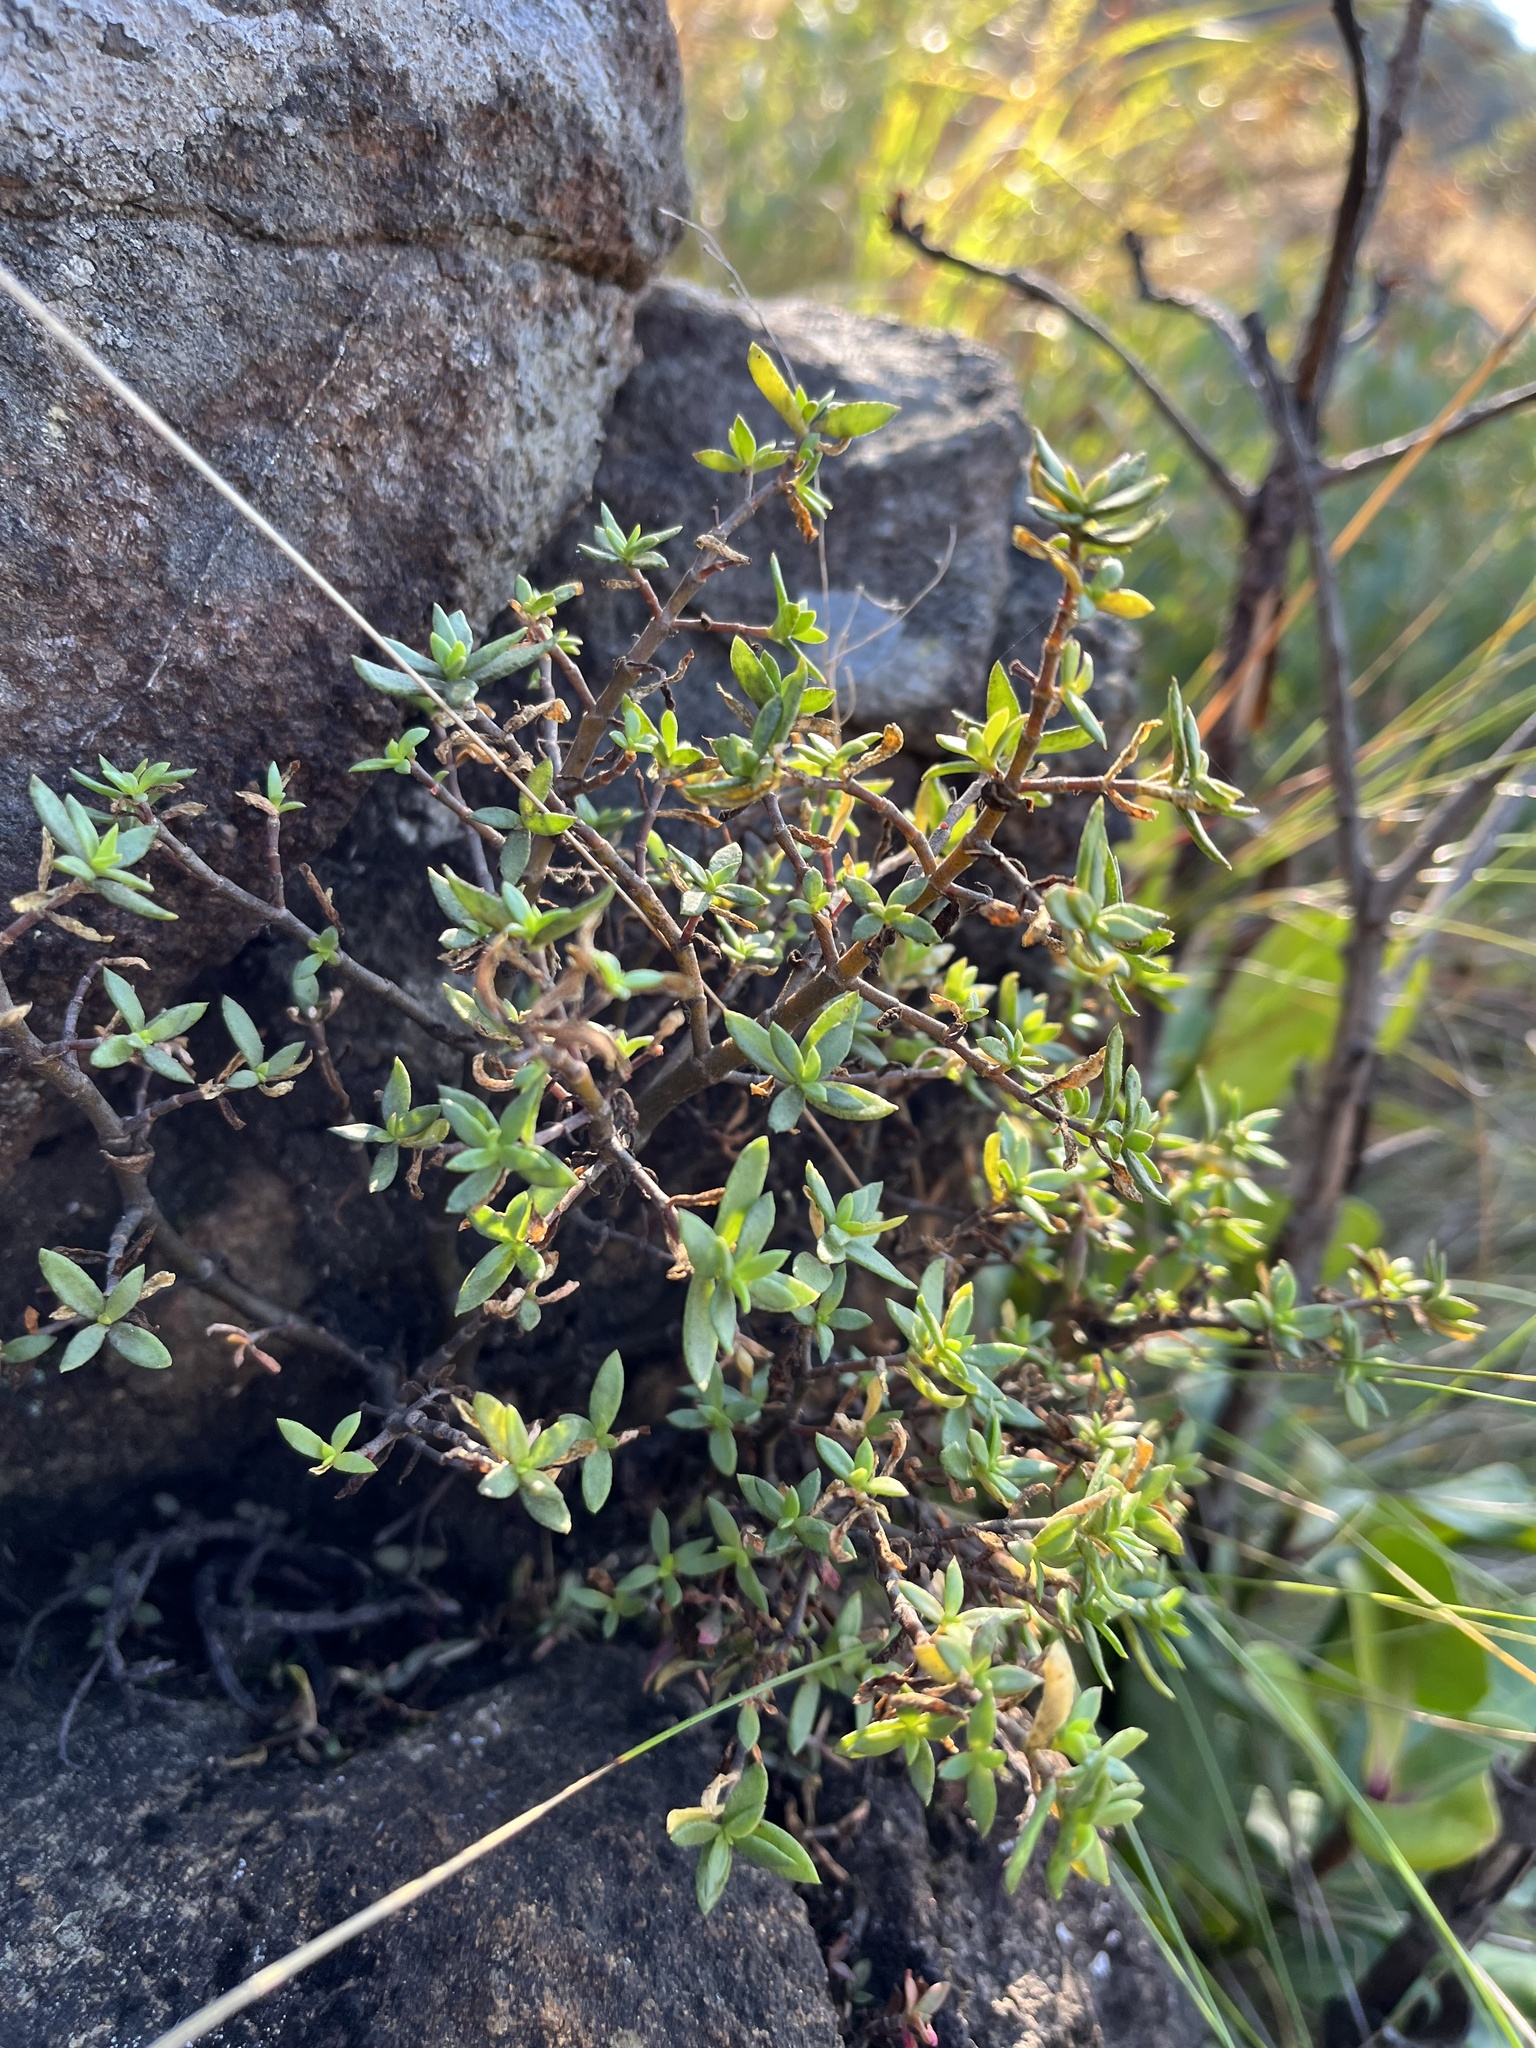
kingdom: Plantae
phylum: Tracheophyta
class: Magnoliopsida
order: Saxifragales
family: Crassulaceae
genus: Crassula
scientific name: Crassula sarcocaulis
